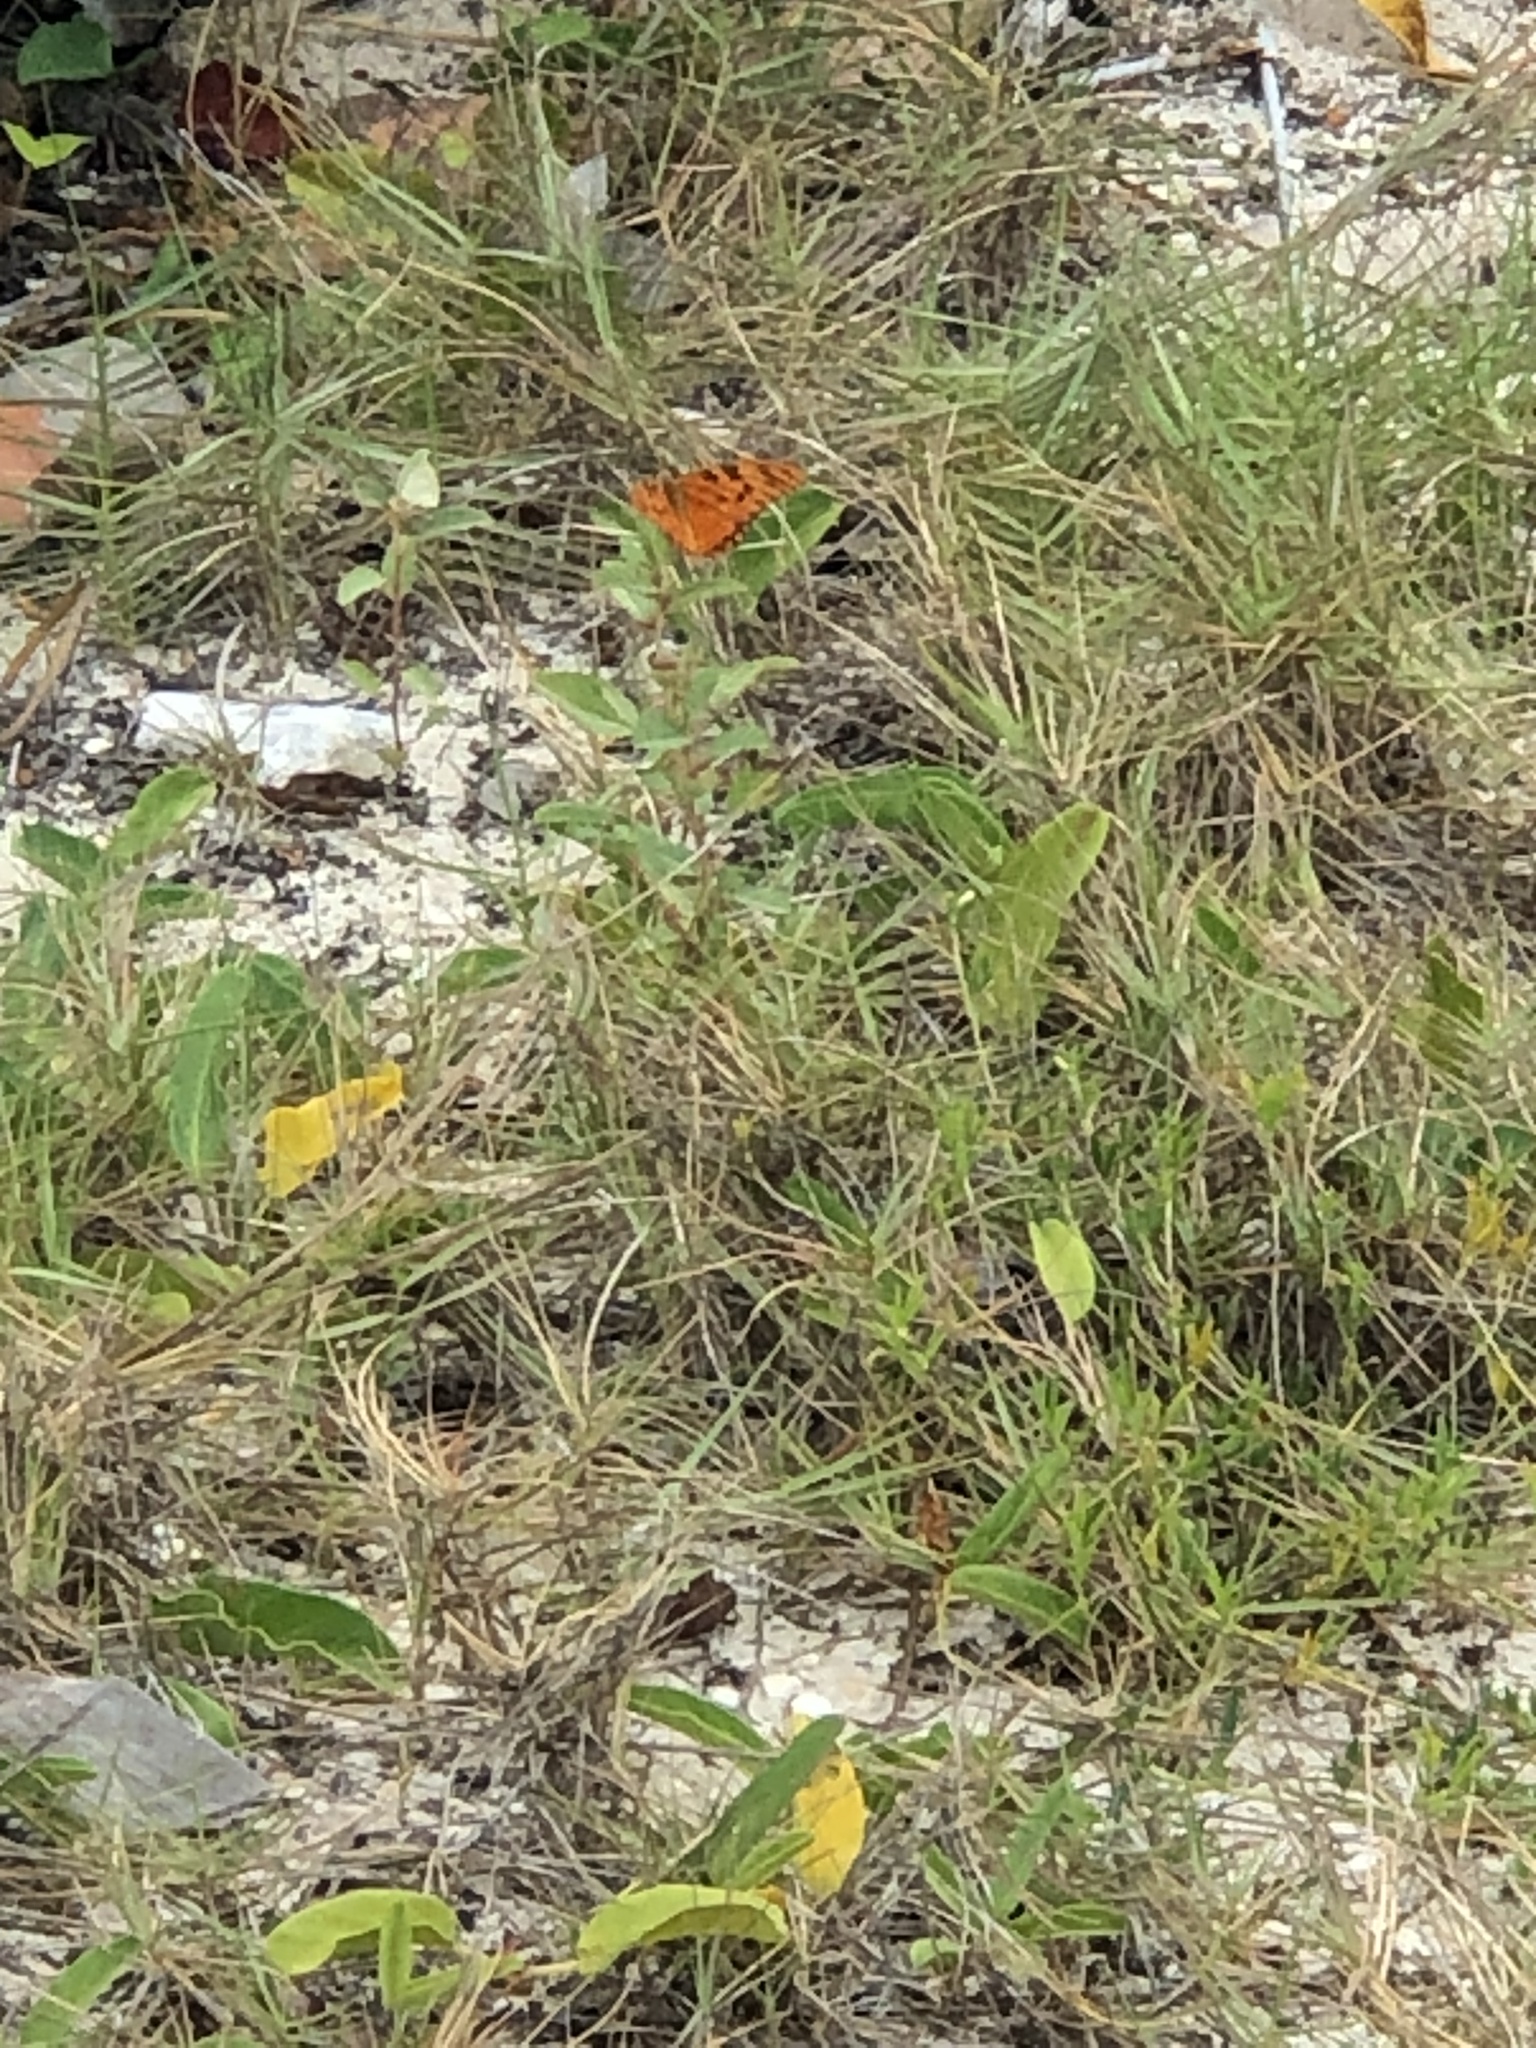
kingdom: Animalia
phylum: Arthropoda
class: Insecta
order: Lepidoptera
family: Nymphalidae
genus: Dione
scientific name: Dione vanillae
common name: Gulf fritillary
